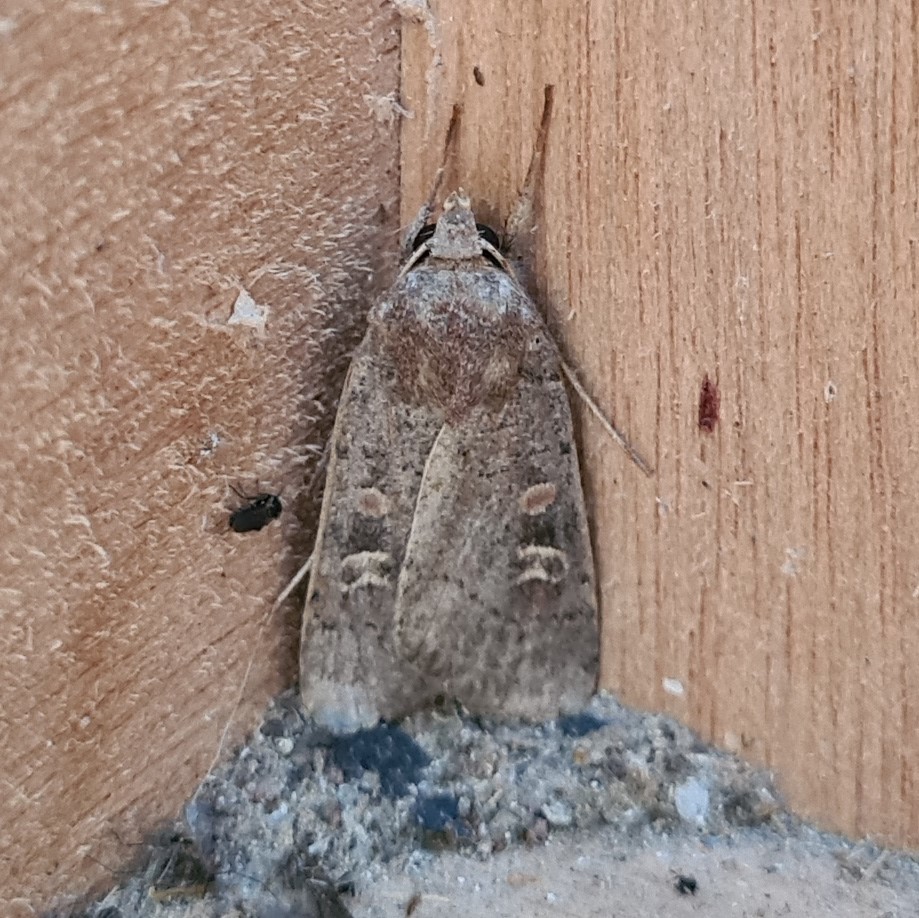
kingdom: Animalia
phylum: Arthropoda
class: Insecta
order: Lepidoptera
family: Noctuidae
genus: Xestia
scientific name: Xestia xanthographa
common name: Square-spot rustic
